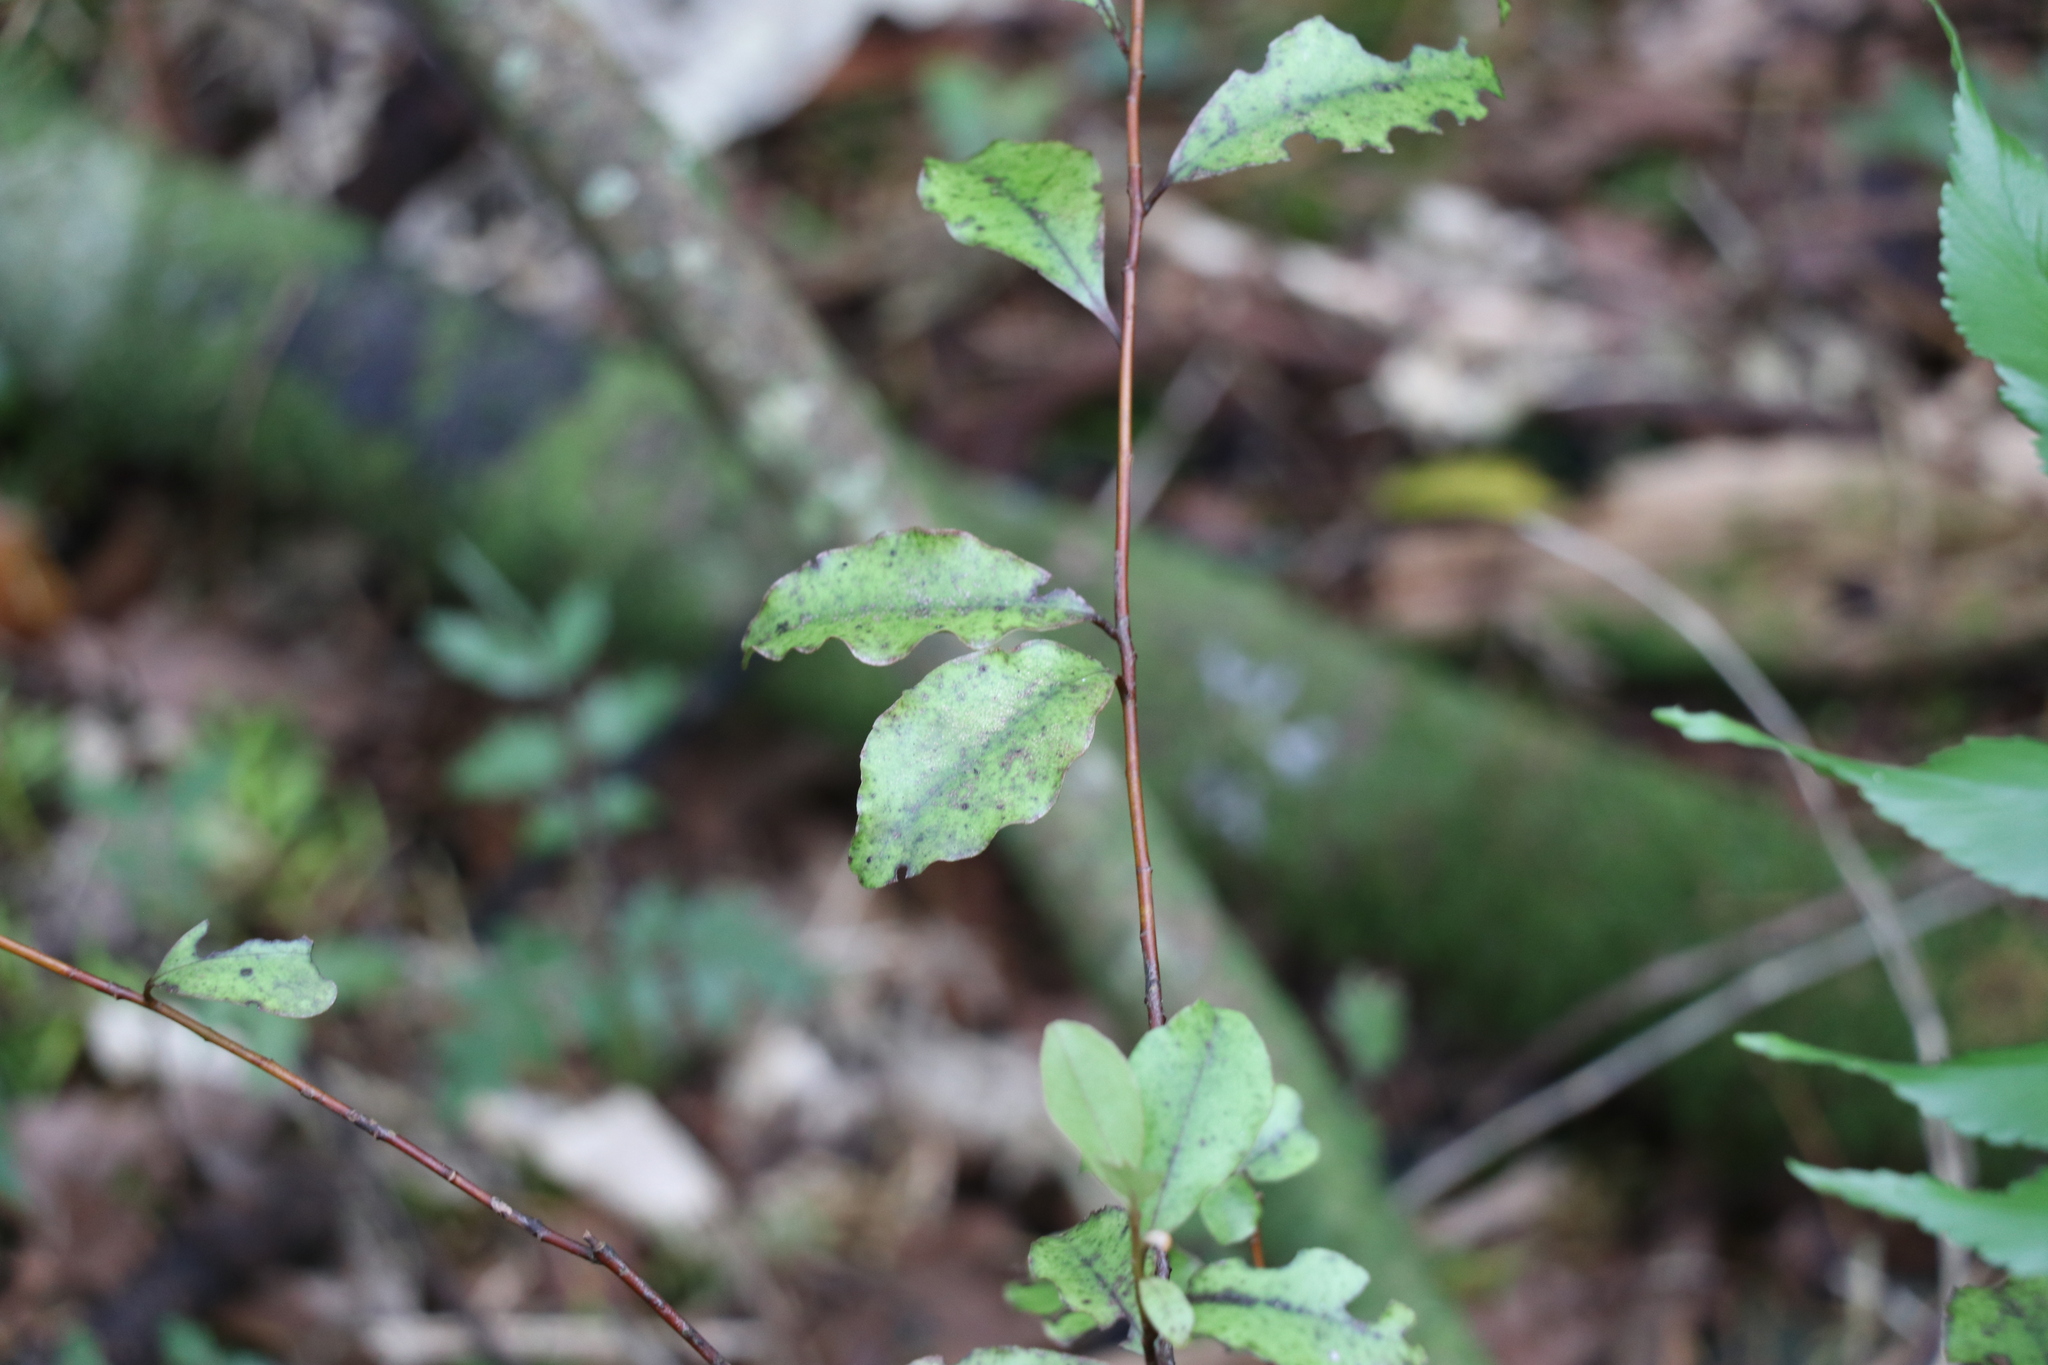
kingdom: Plantae
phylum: Tracheophyta
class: Magnoliopsida
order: Ericales
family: Primulaceae
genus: Myrsine
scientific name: Myrsine australis
